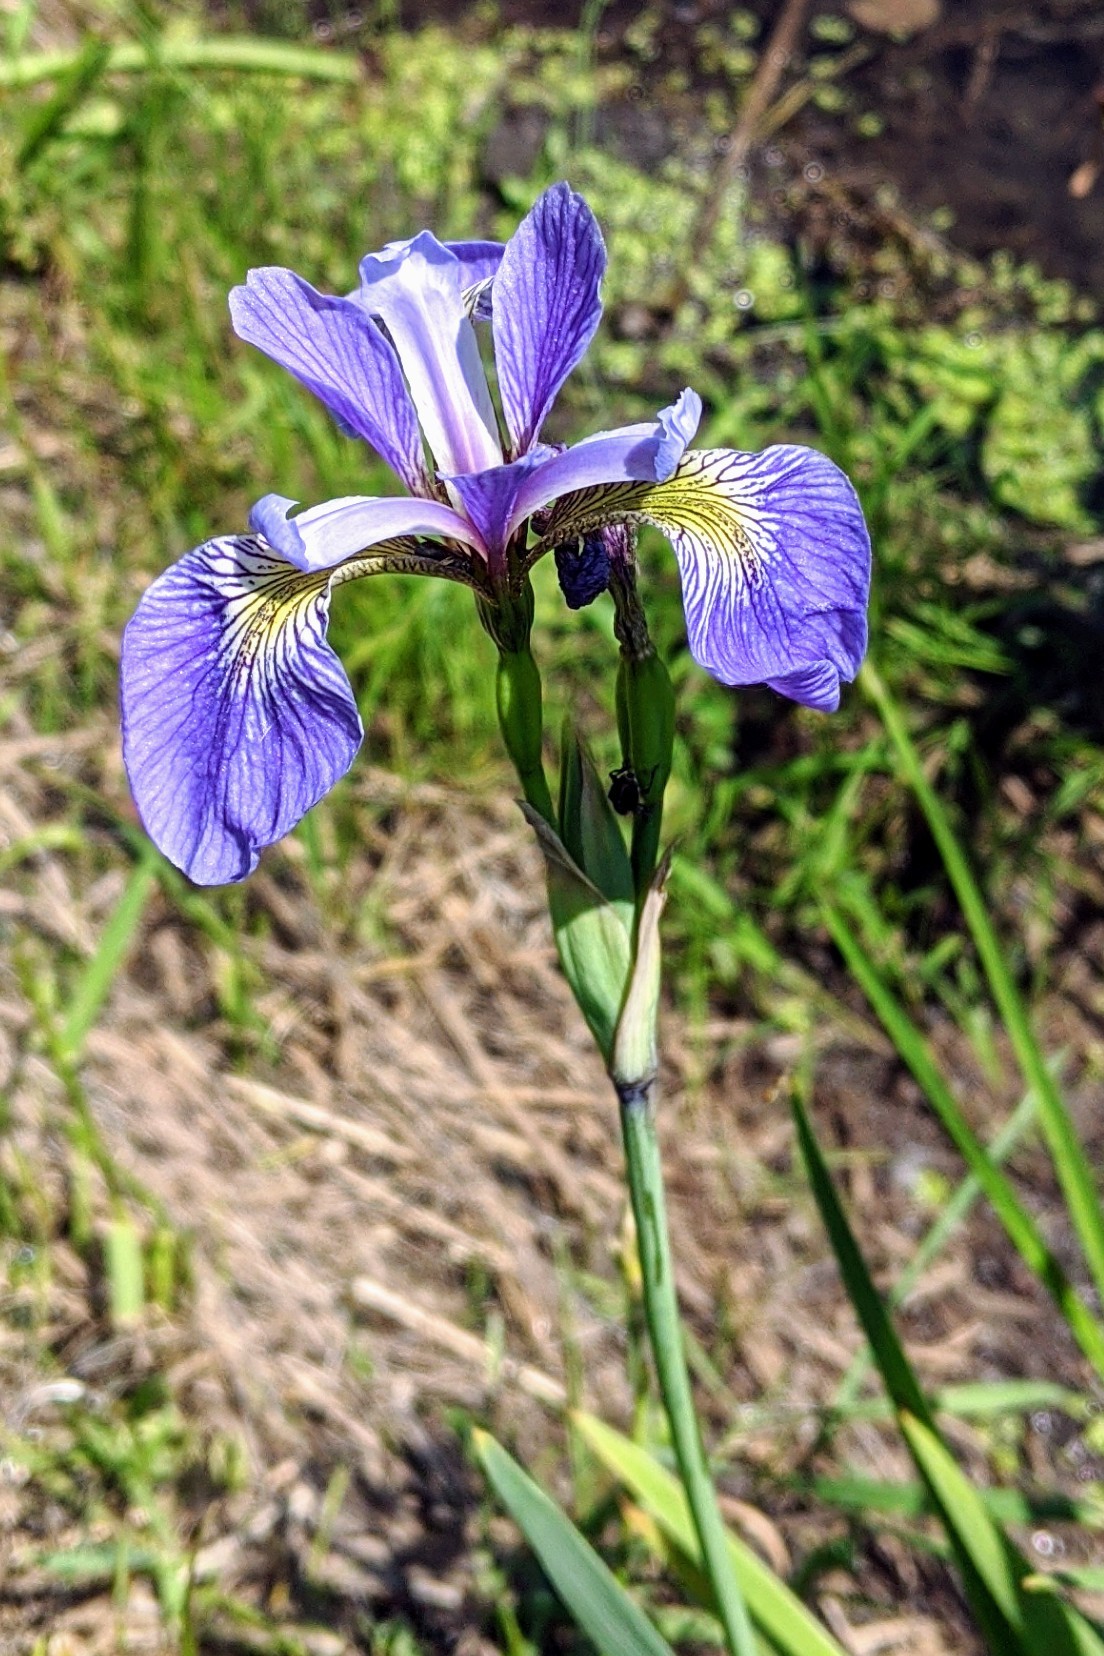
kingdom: Plantae
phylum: Tracheophyta
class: Liliopsida
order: Asparagales
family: Iridaceae
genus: Iris
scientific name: Iris virginica
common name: Southern blue flag
